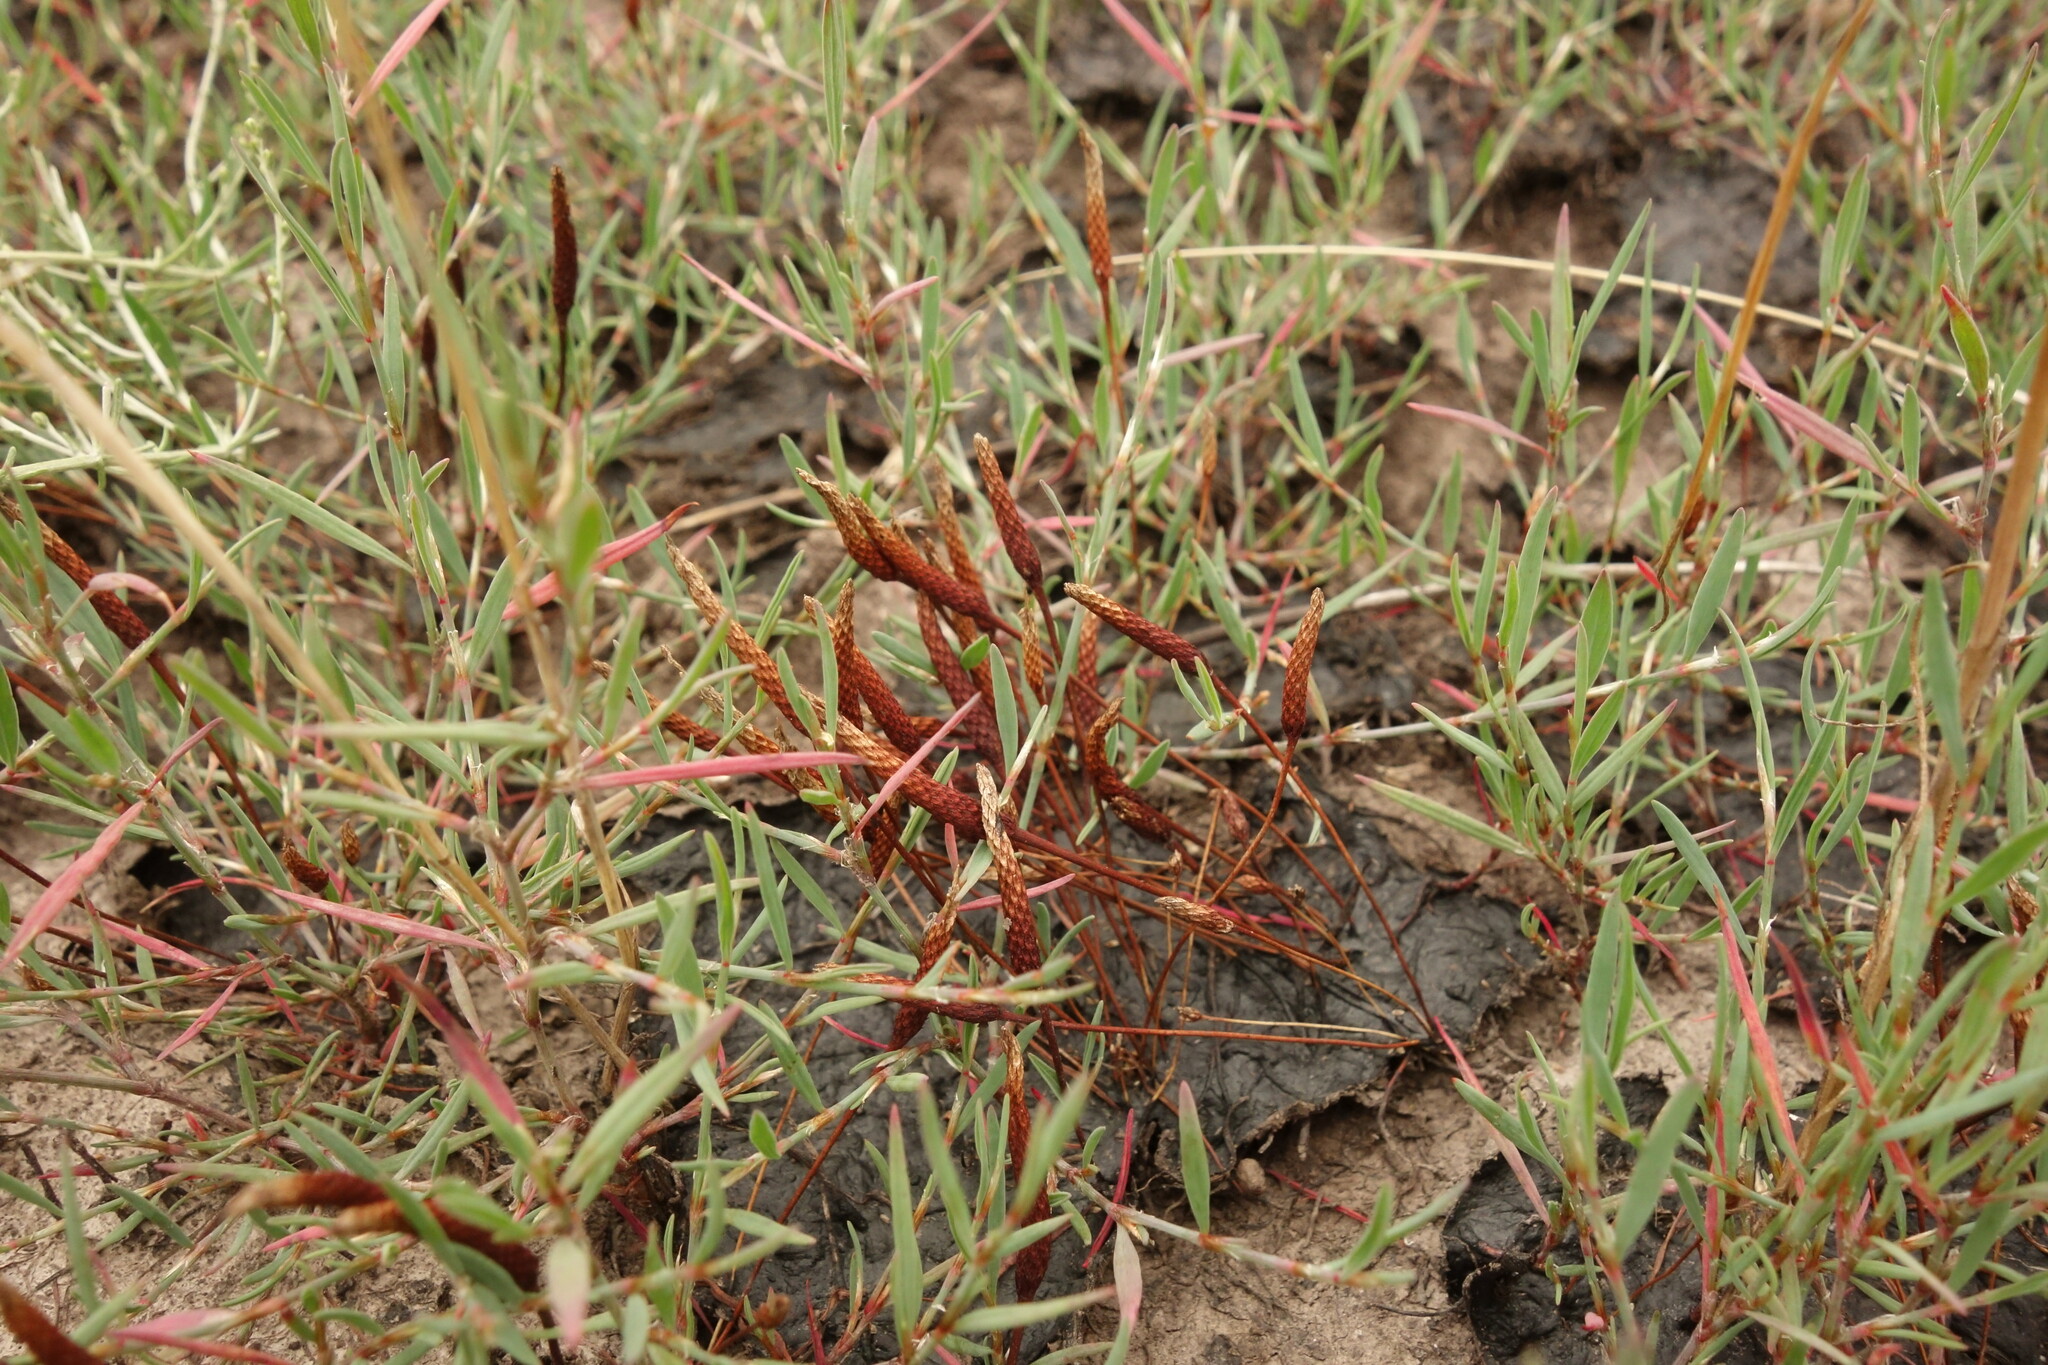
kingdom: Plantae
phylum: Tracheophyta
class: Magnoliopsida
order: Ranunculales
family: Ranunculaceae
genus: Myosurus
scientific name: Myosurus minimus
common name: Mousetail
